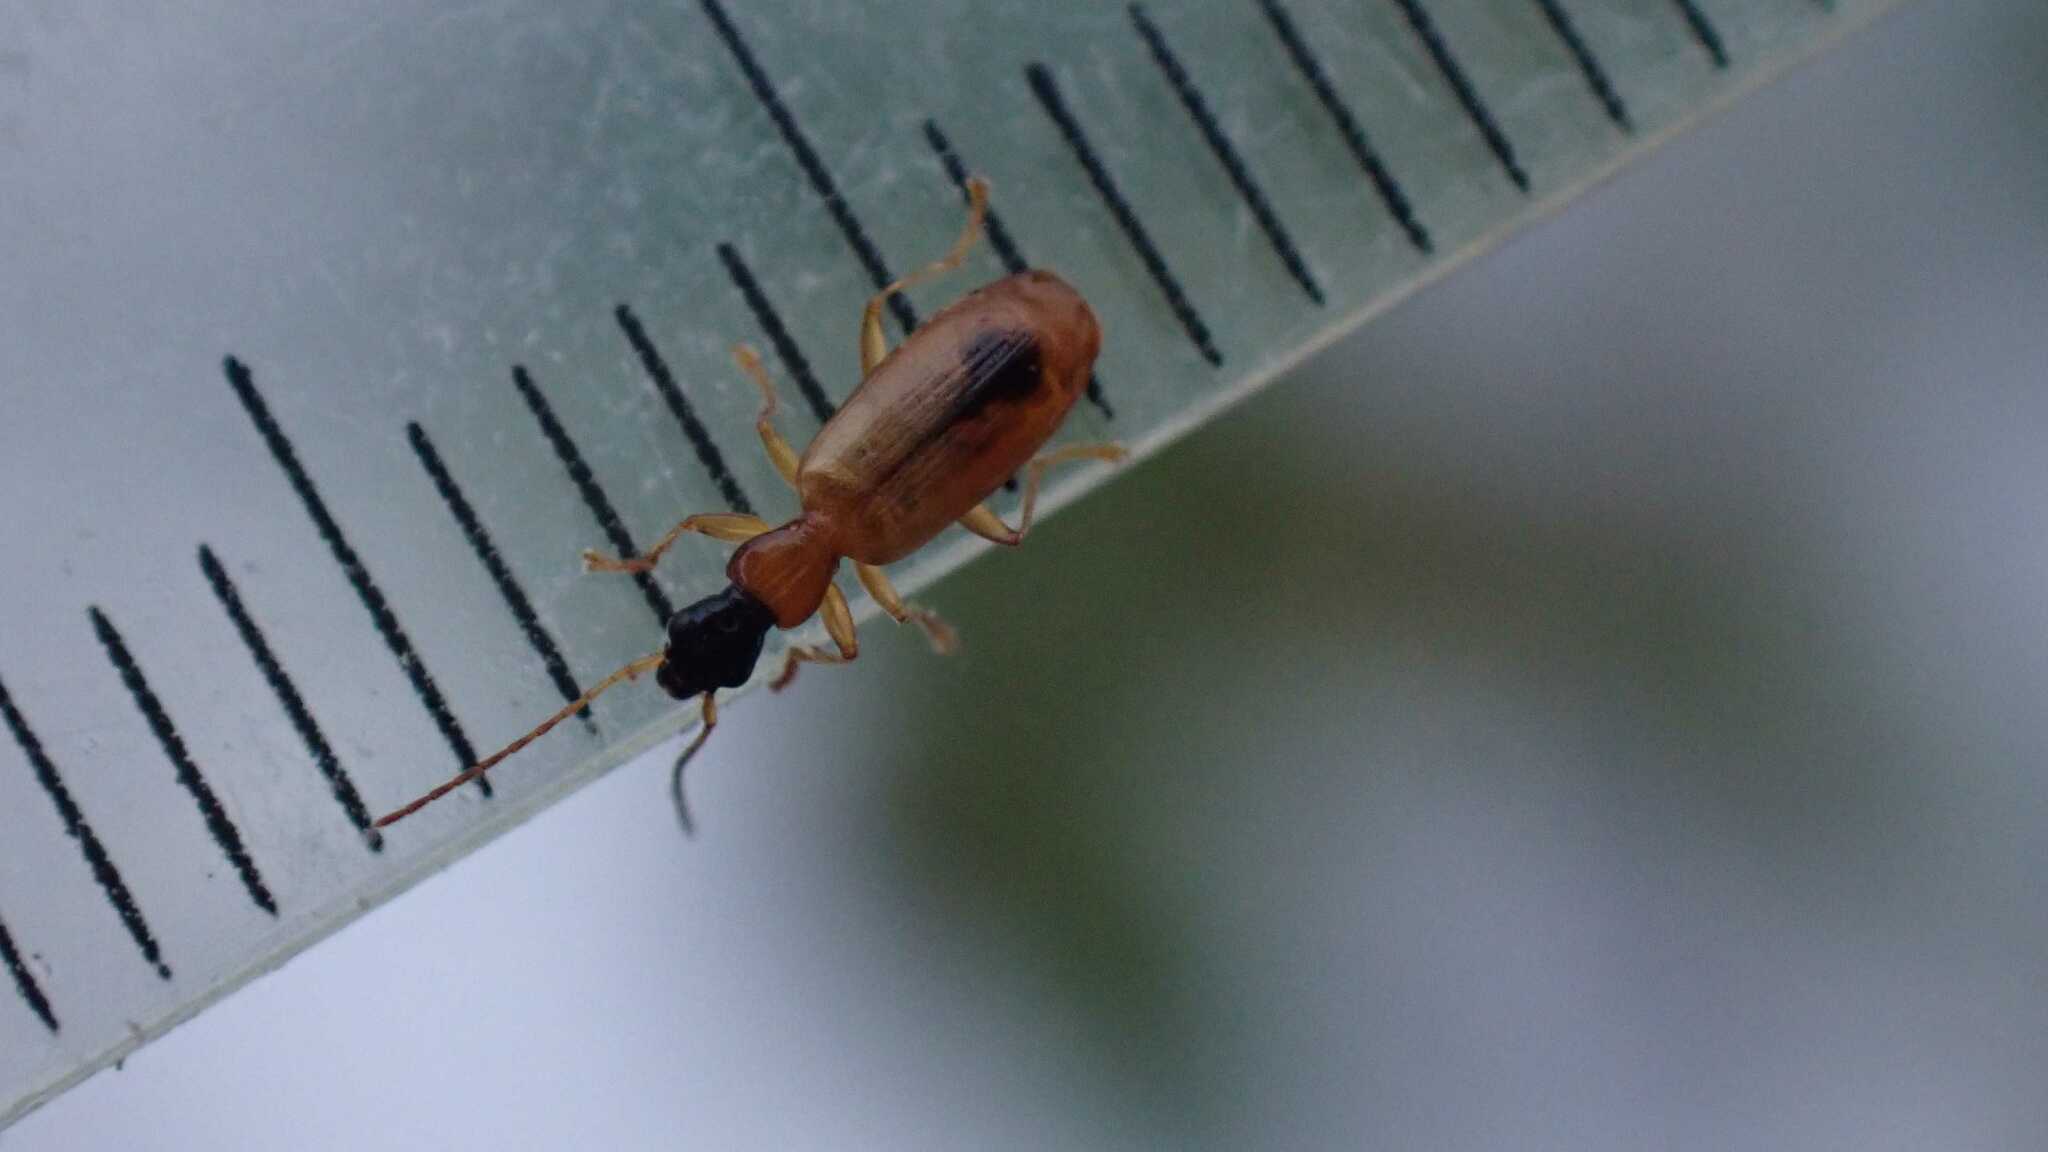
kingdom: Animalia
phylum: Arthropoda
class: Insecta
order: Coleoptera
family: Carabidae
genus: Demetrias
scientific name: Demetrias monostigma
